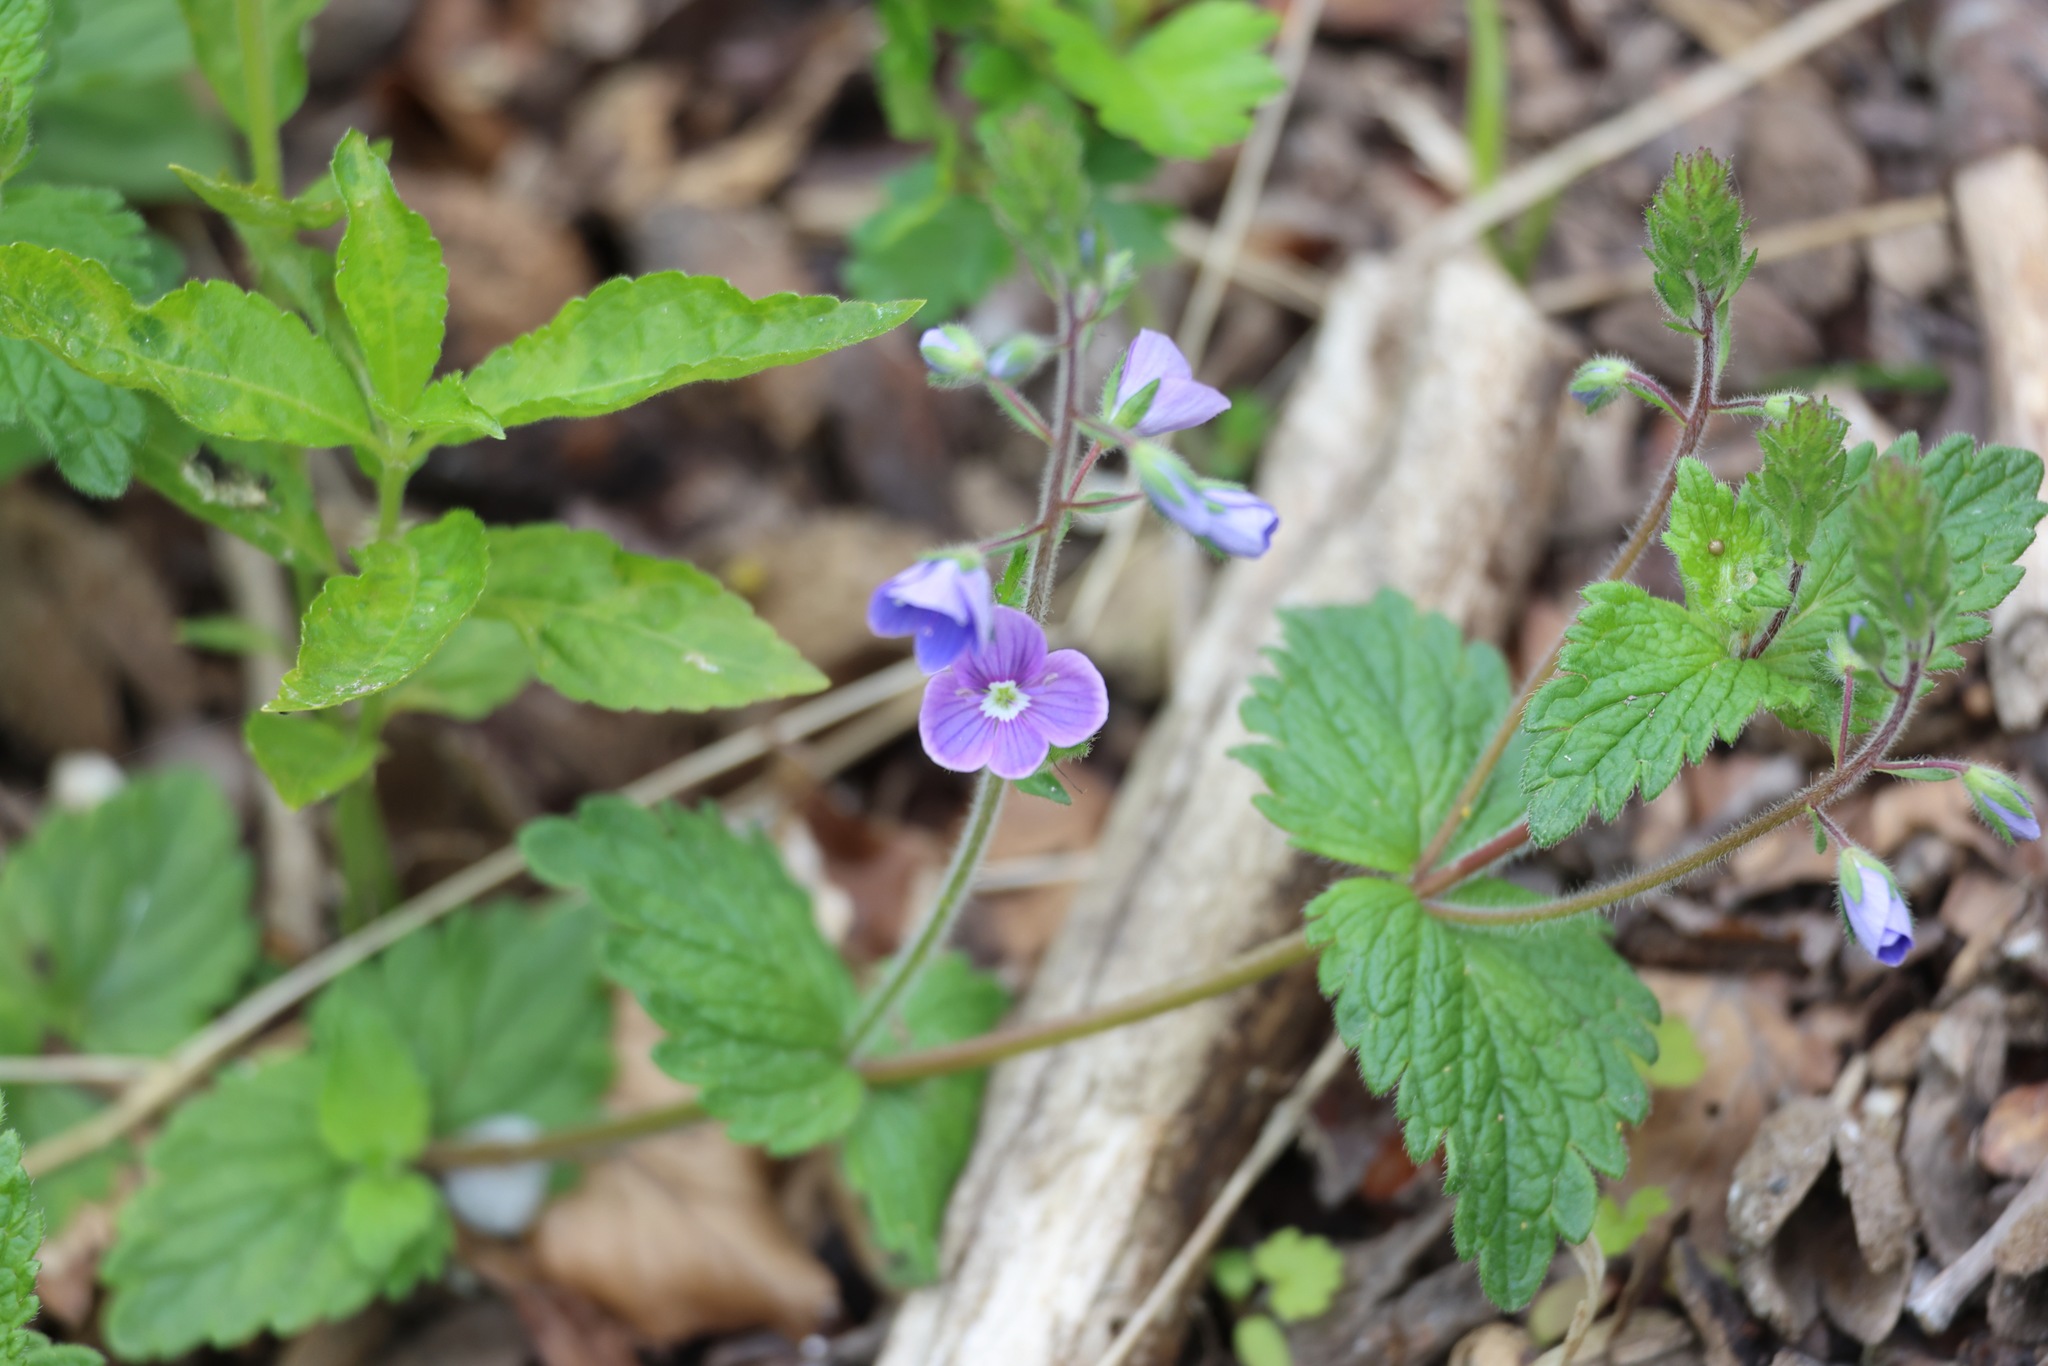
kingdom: Plantae
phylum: Tracheophyta
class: Magnoliopsida
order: Lamiales
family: Plantaginaceae
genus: Veronica
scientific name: Veronica chamaedrys
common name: Germander speedwell
